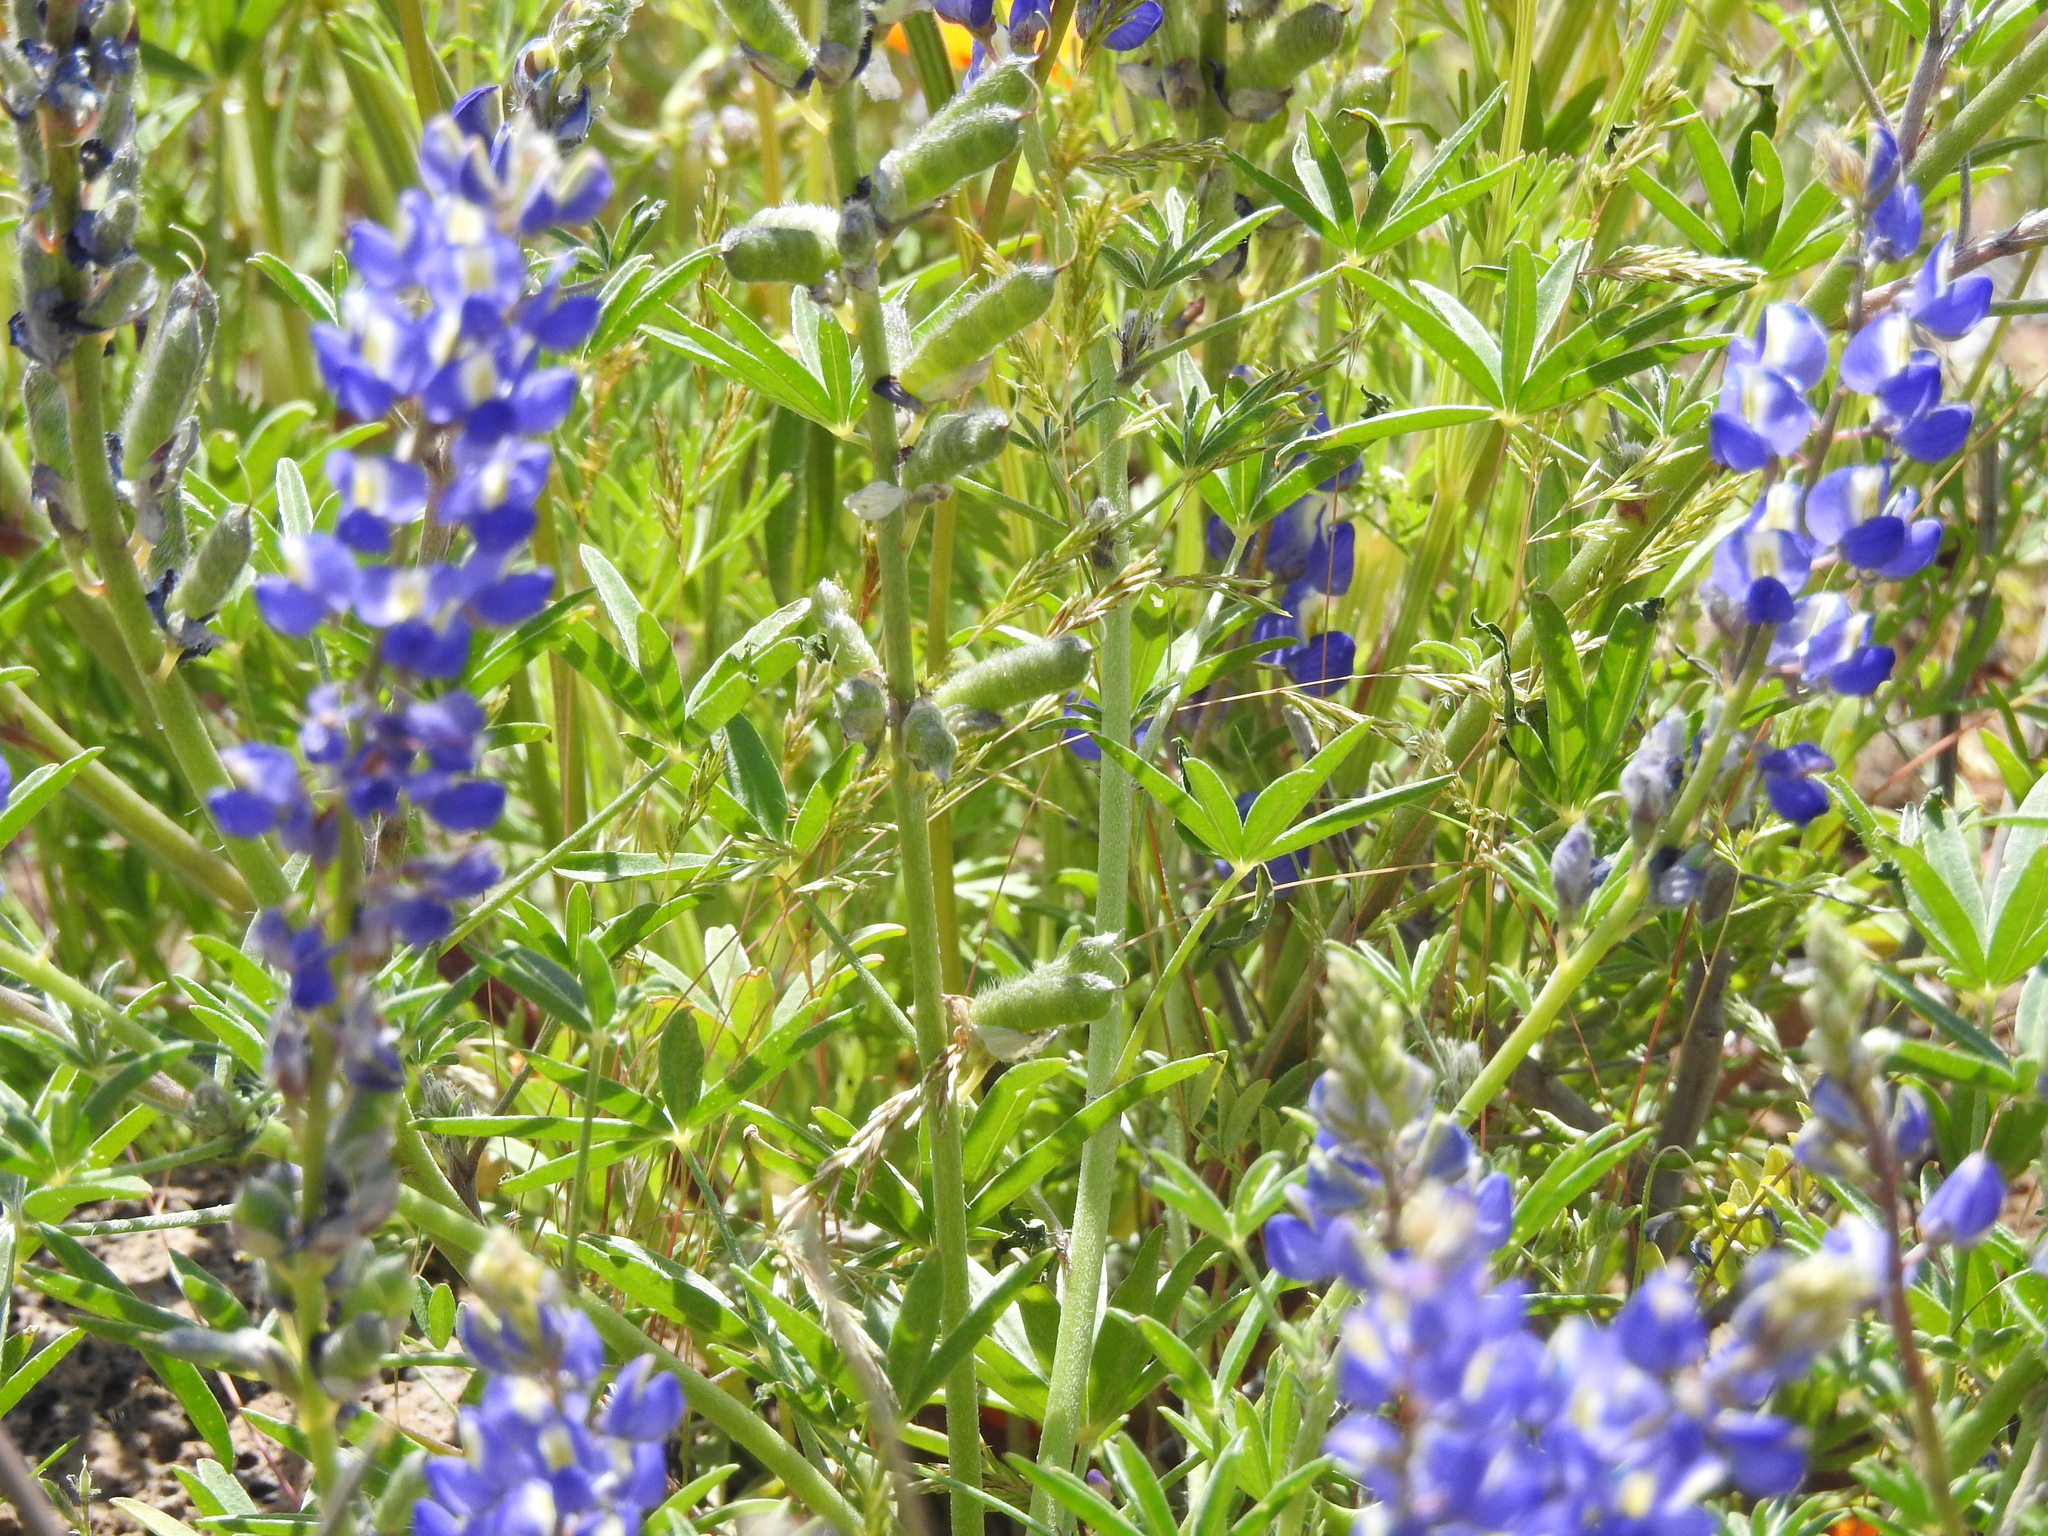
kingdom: Plantae
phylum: Tracheophyta
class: Magnoliopsida
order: Fabales
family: Fabaceae
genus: Lupinus
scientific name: Lupinus sparsiflorus
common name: Coulter's lupine
